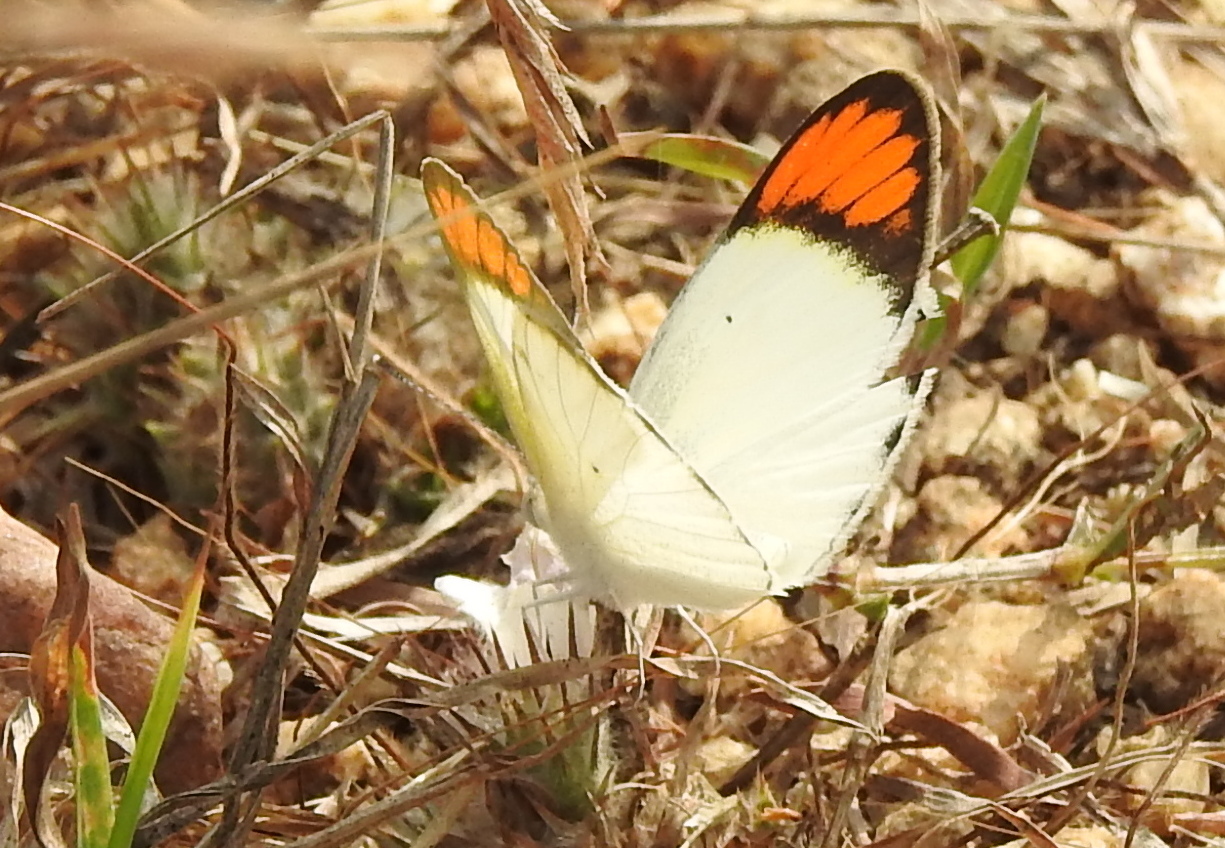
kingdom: Animalia
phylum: Arthropoda
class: Insecta
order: Lepidoptera
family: Pieridae
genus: Colotis
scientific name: Colotis etrida
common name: Little orange tip
